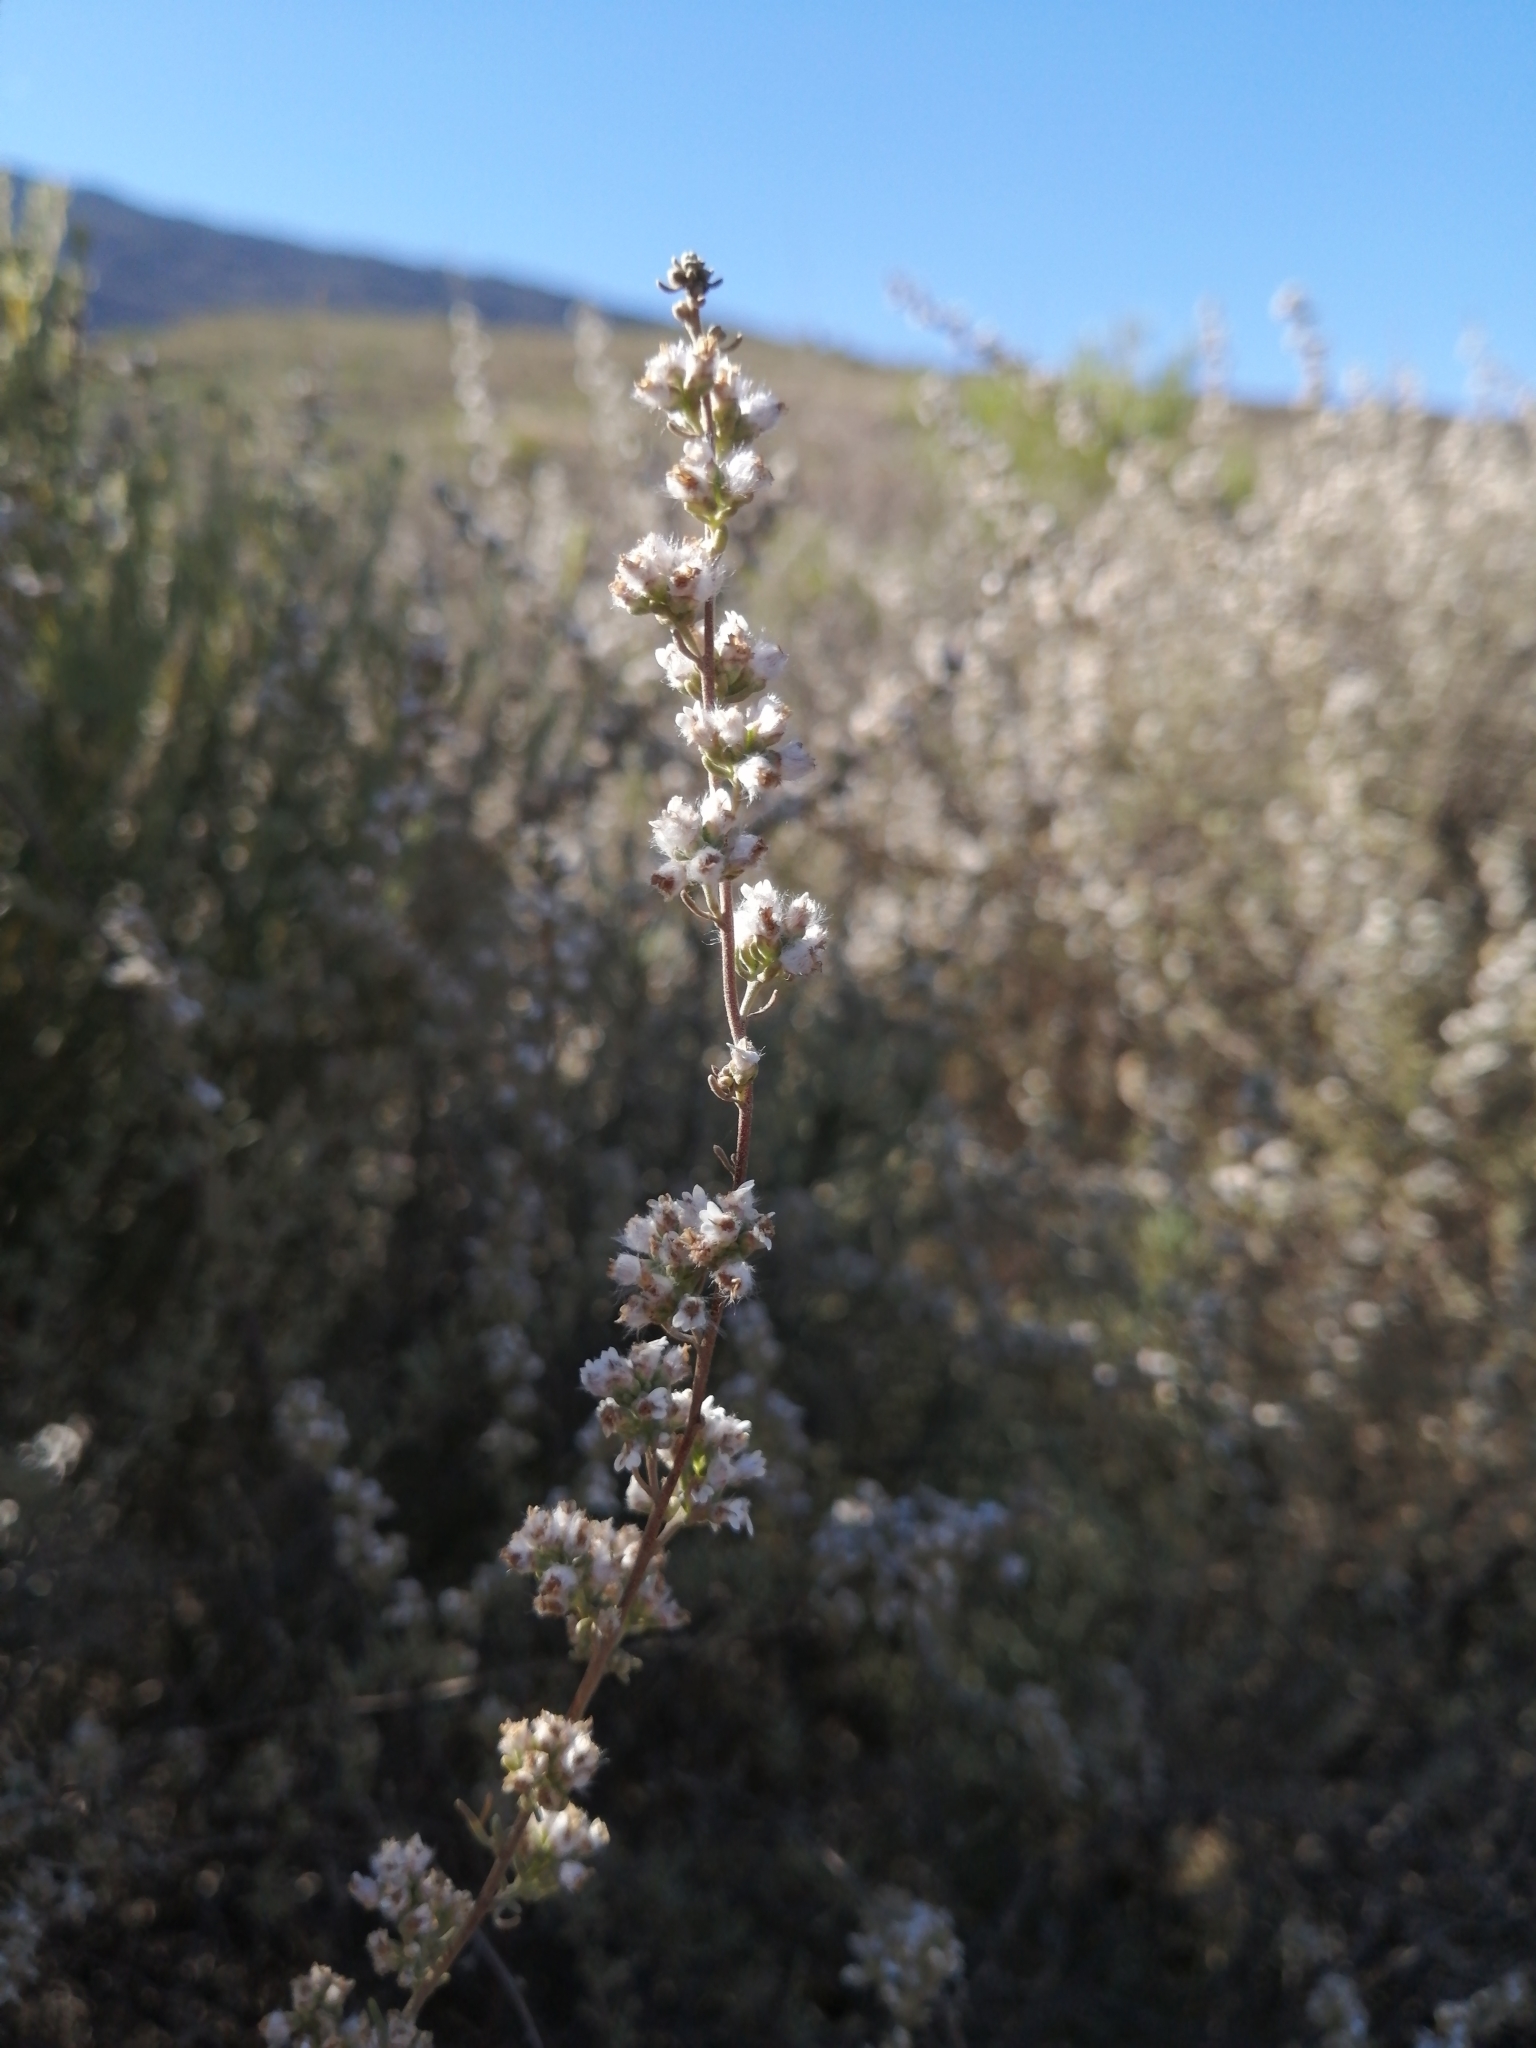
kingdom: Plantae
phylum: Tracheophyta
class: Magnoliopsida
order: Asterales
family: Asteraceae
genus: Eriocephalus
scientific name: Eriocephalus capitellatus
